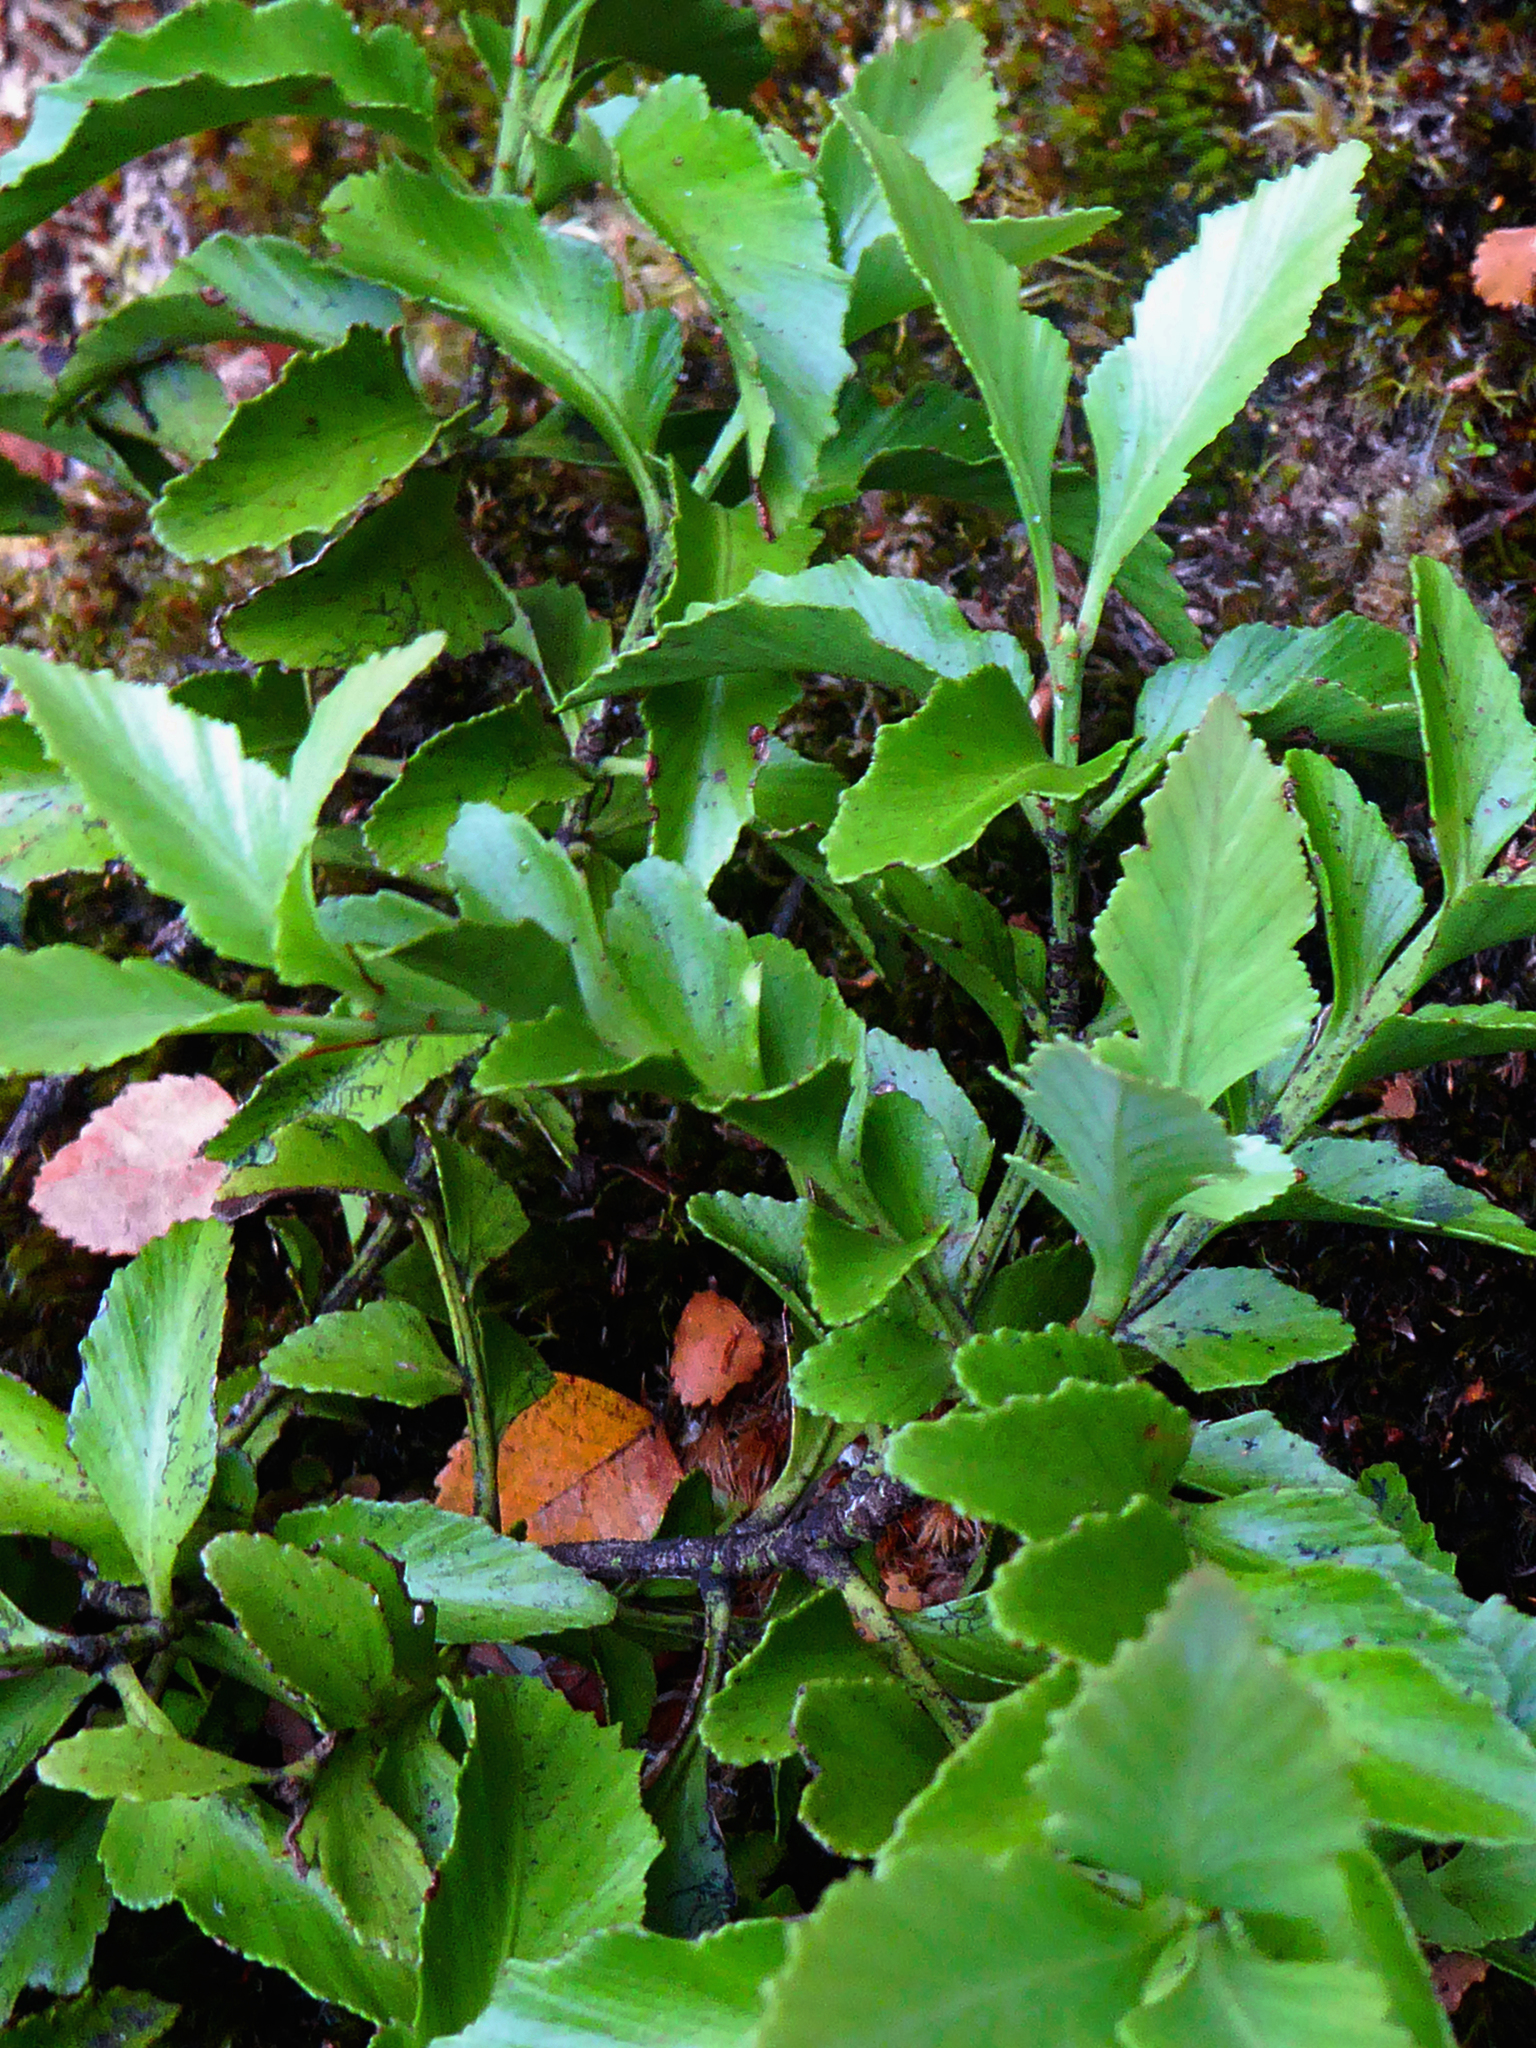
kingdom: Plantae
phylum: Tracheophyta
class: Pinopsida
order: Pinales
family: Phyllocladaceae
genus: Phyllocladus
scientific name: Phyllocladus trichomanoides
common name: Celery pine
